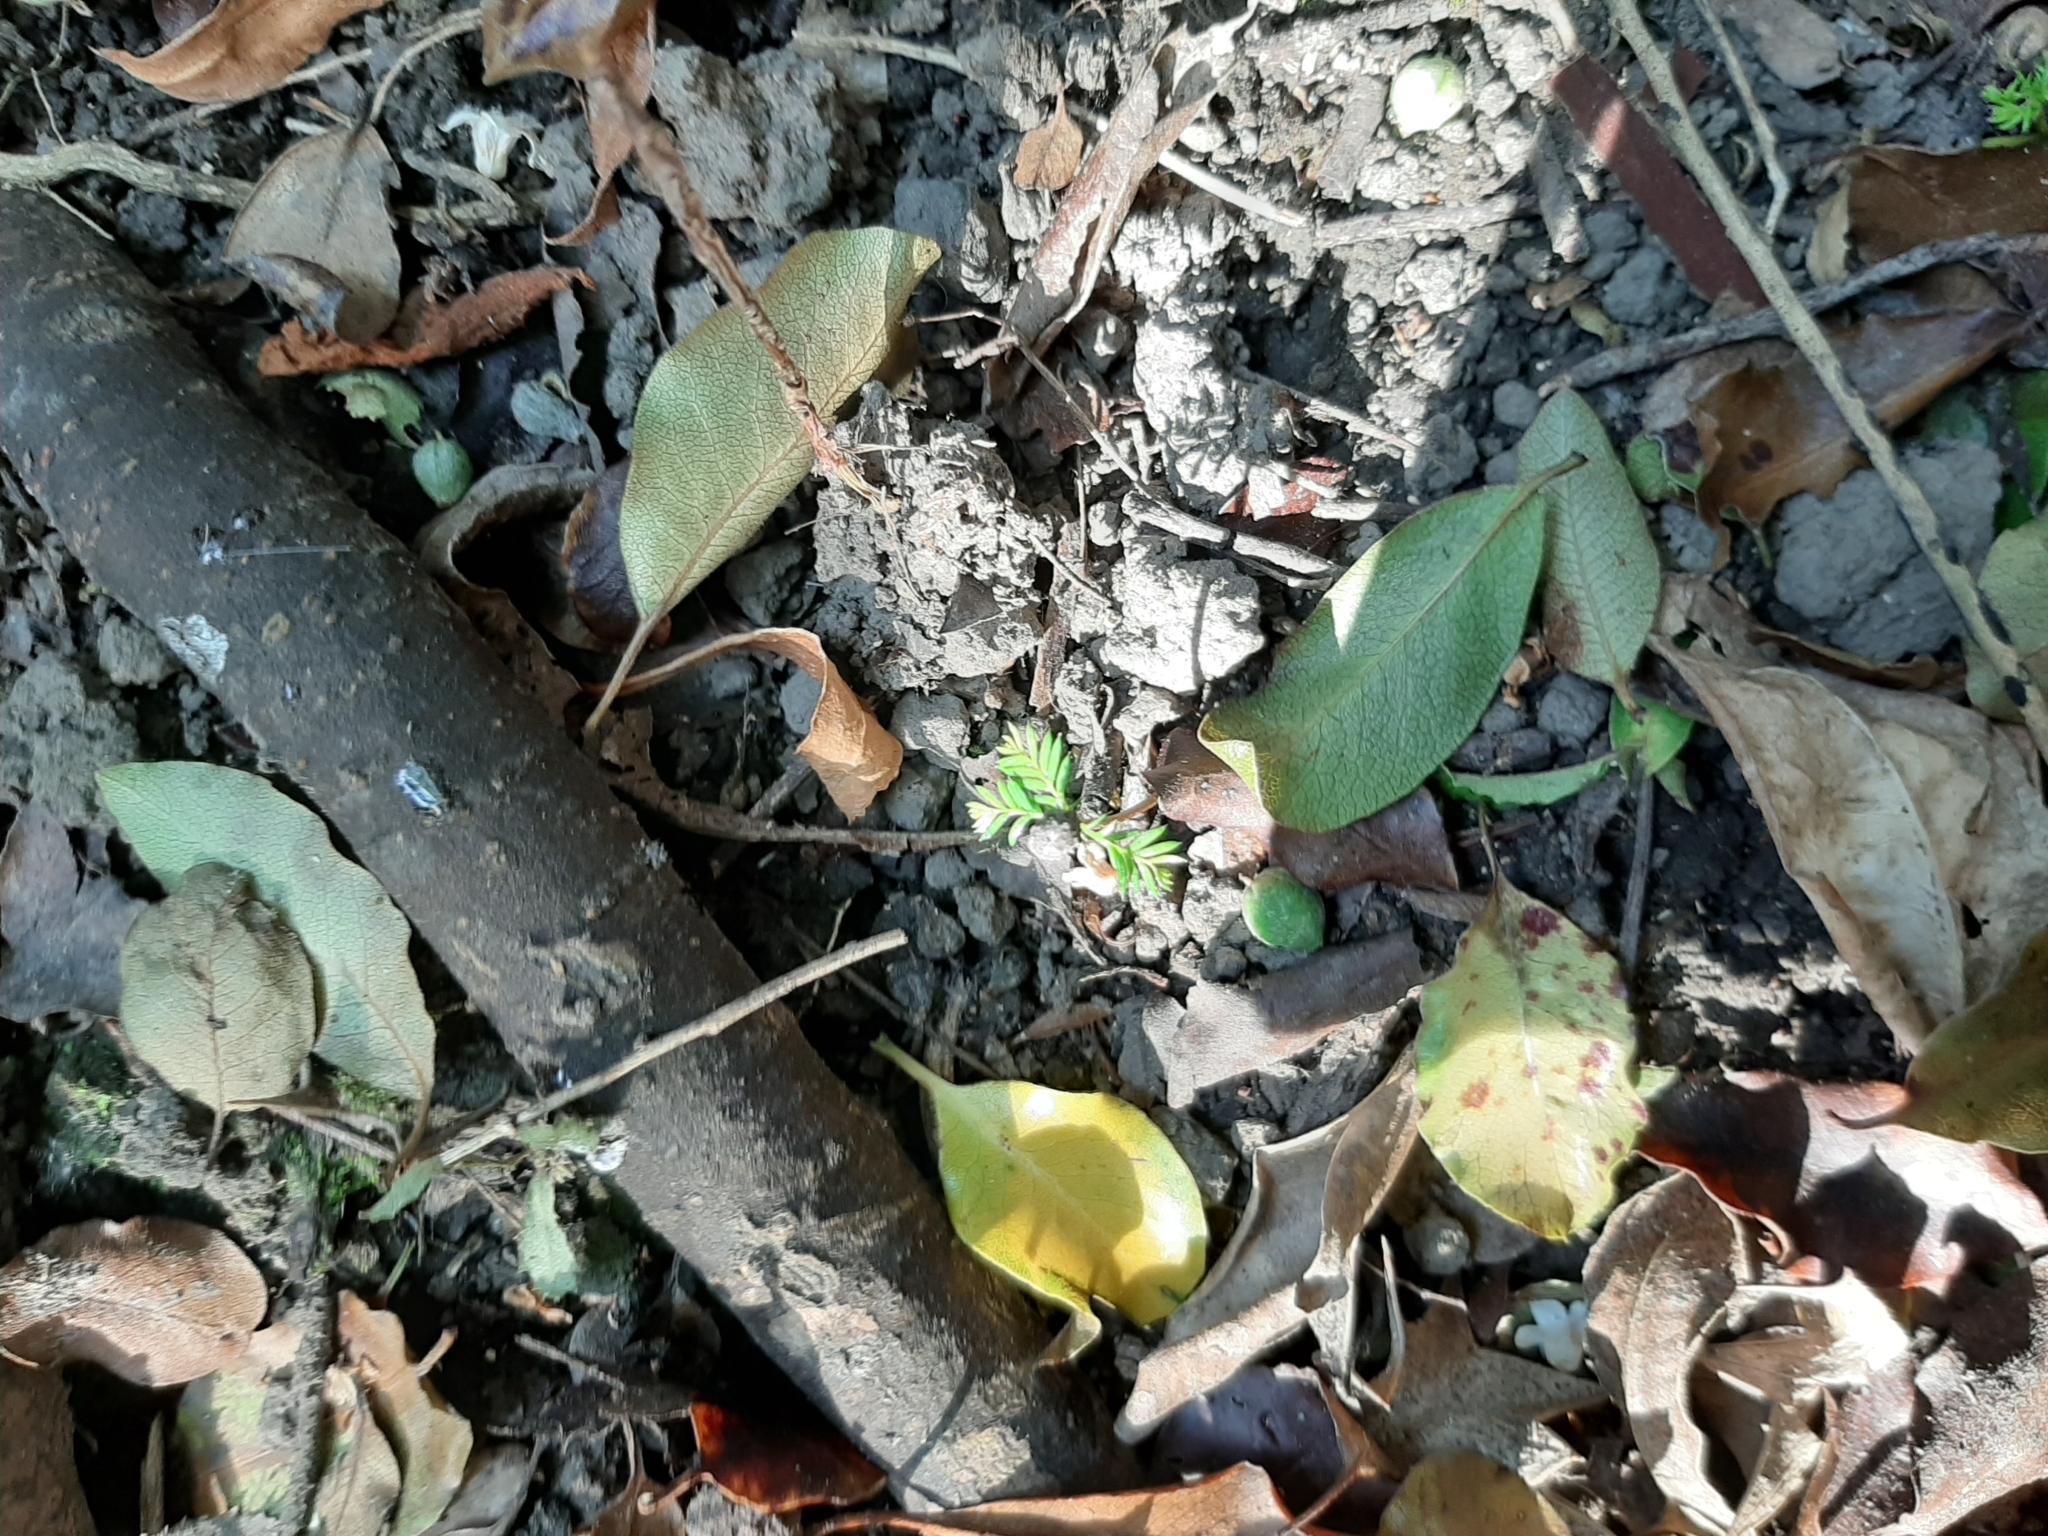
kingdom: Plantae
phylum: Tracheophyta
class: Pinopsida
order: Pinales
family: Podocarpaceae
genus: Dacrycarpus
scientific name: Dacrycarpus dacrydioides
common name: White pine
